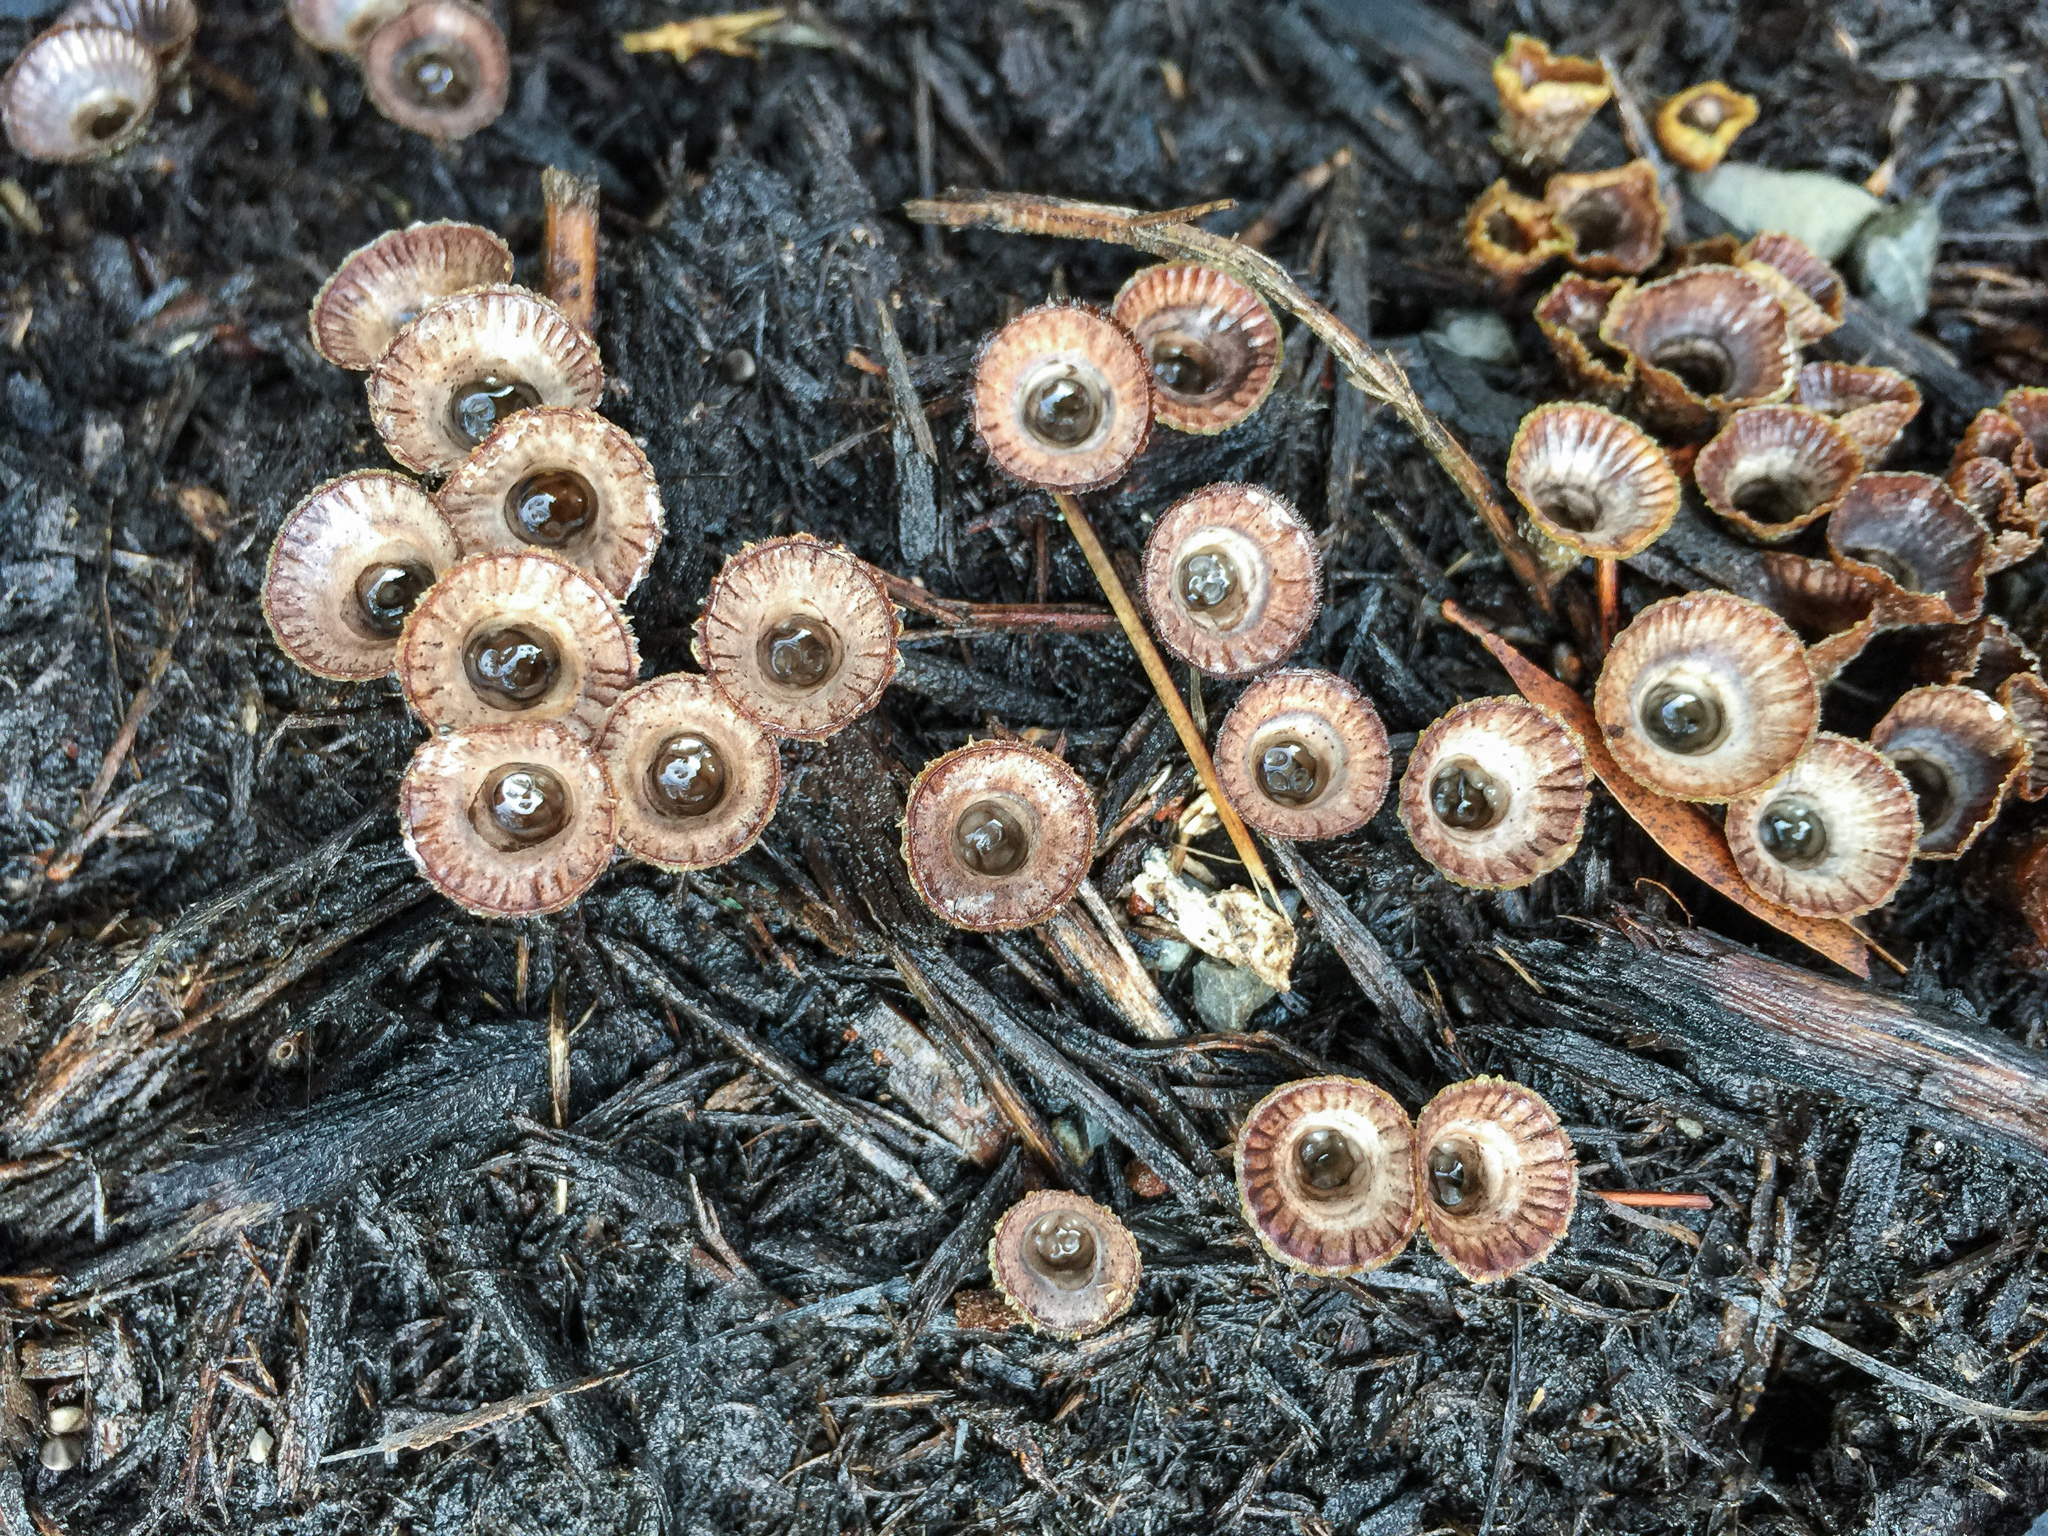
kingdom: Fungi
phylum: Basidiomycota
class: Agaricomycetes
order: Agaricales
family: Agaricaceae
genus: Cyathus
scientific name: Cyathus striatus
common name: Fluted bird's nest
